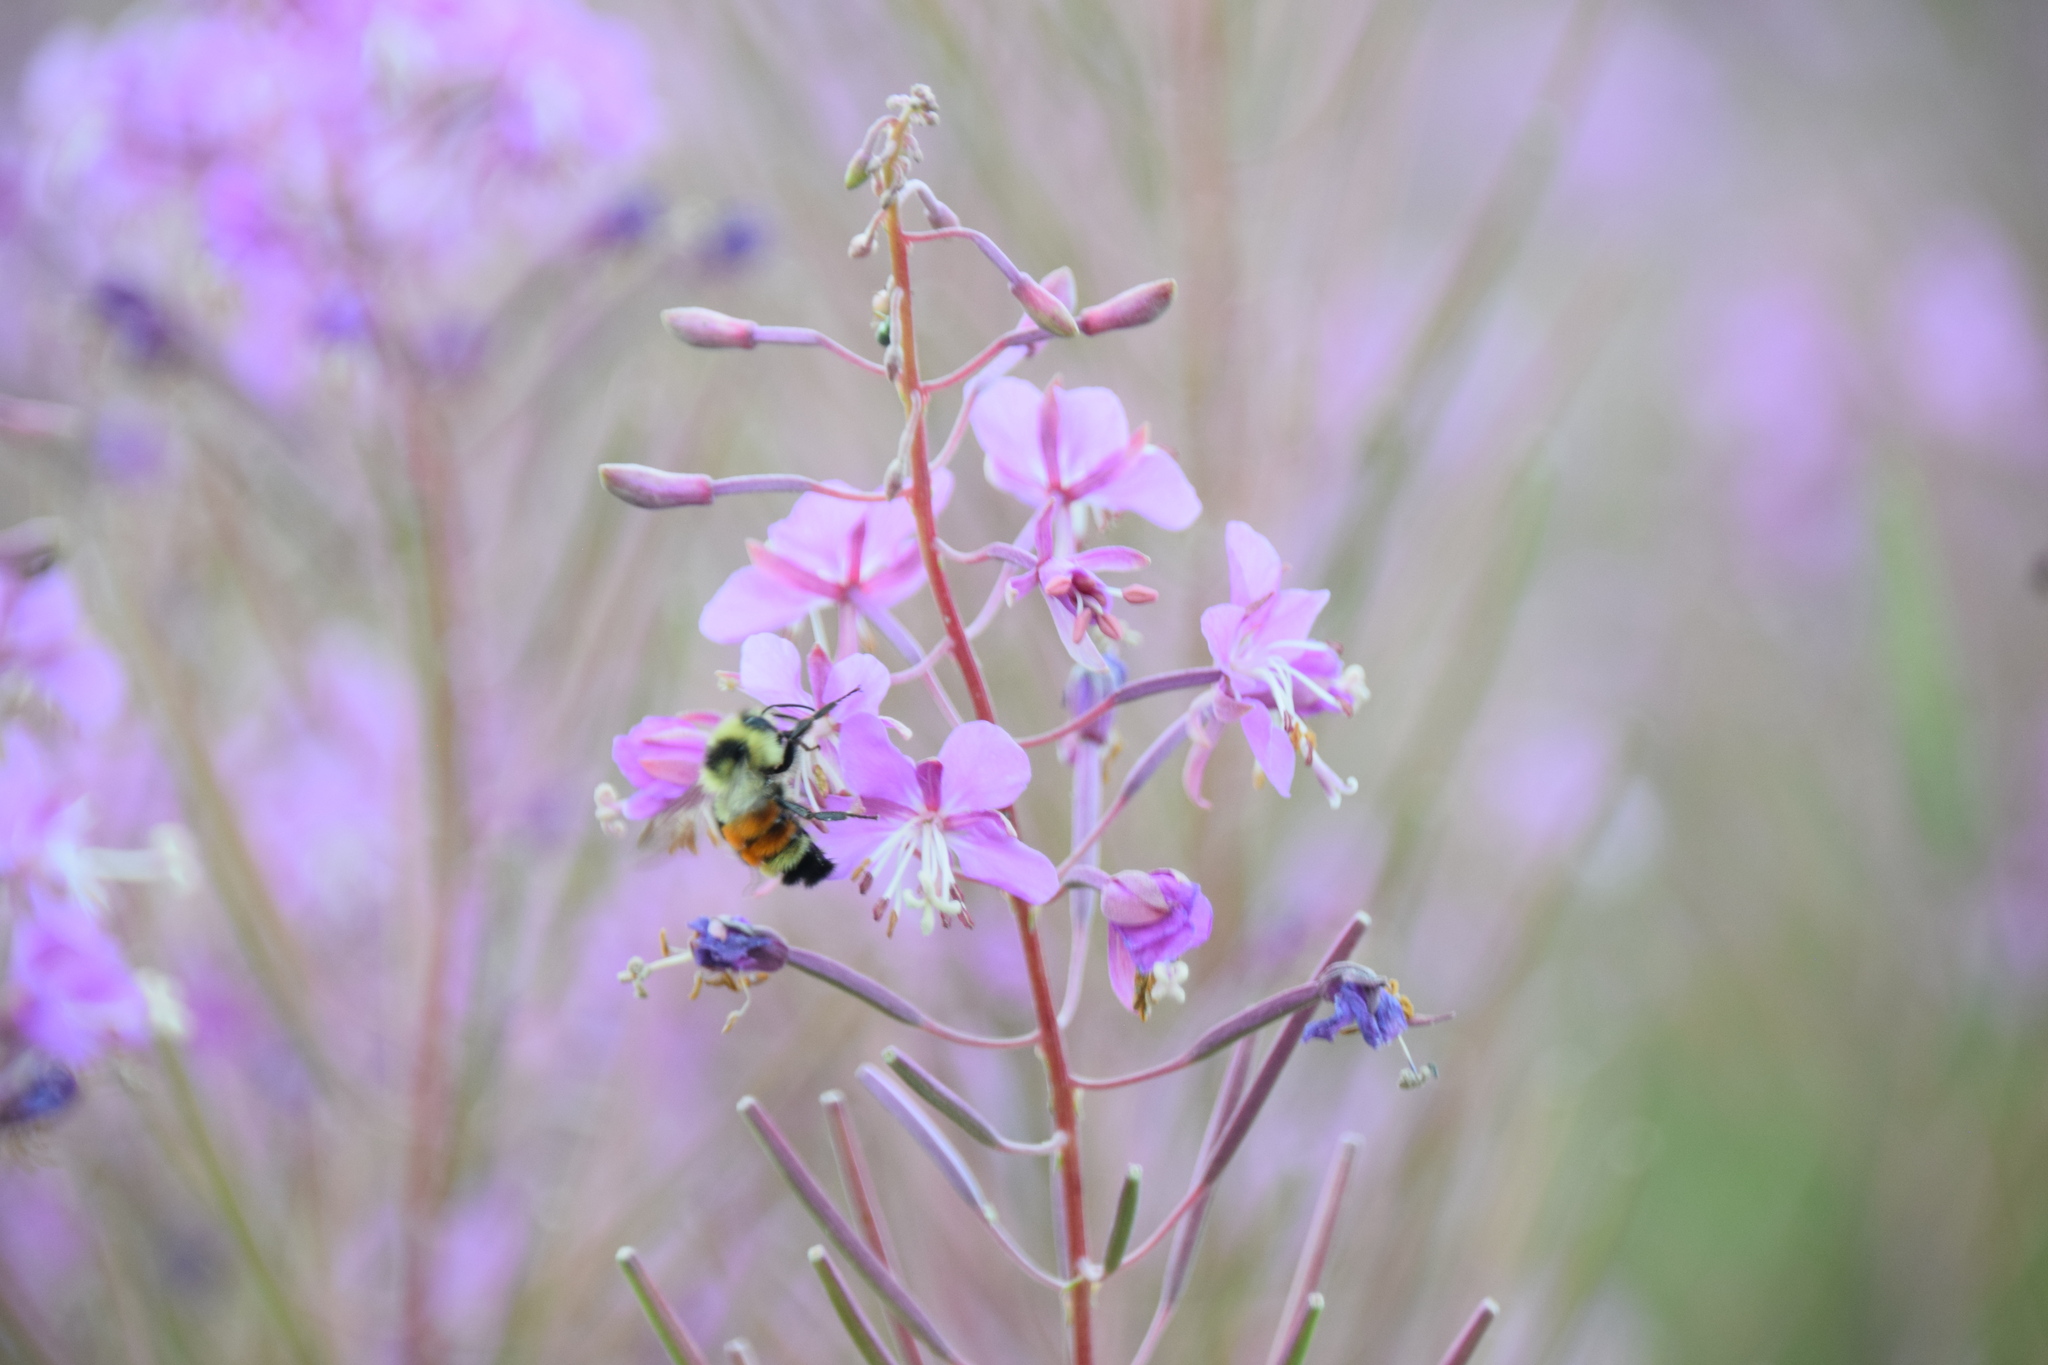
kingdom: Animalia
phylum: Arthropoda
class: Insecta
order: Hymenoptera
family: Apidae
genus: Bombus
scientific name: Bombus ternarius
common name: Tri-colored bumble bee
